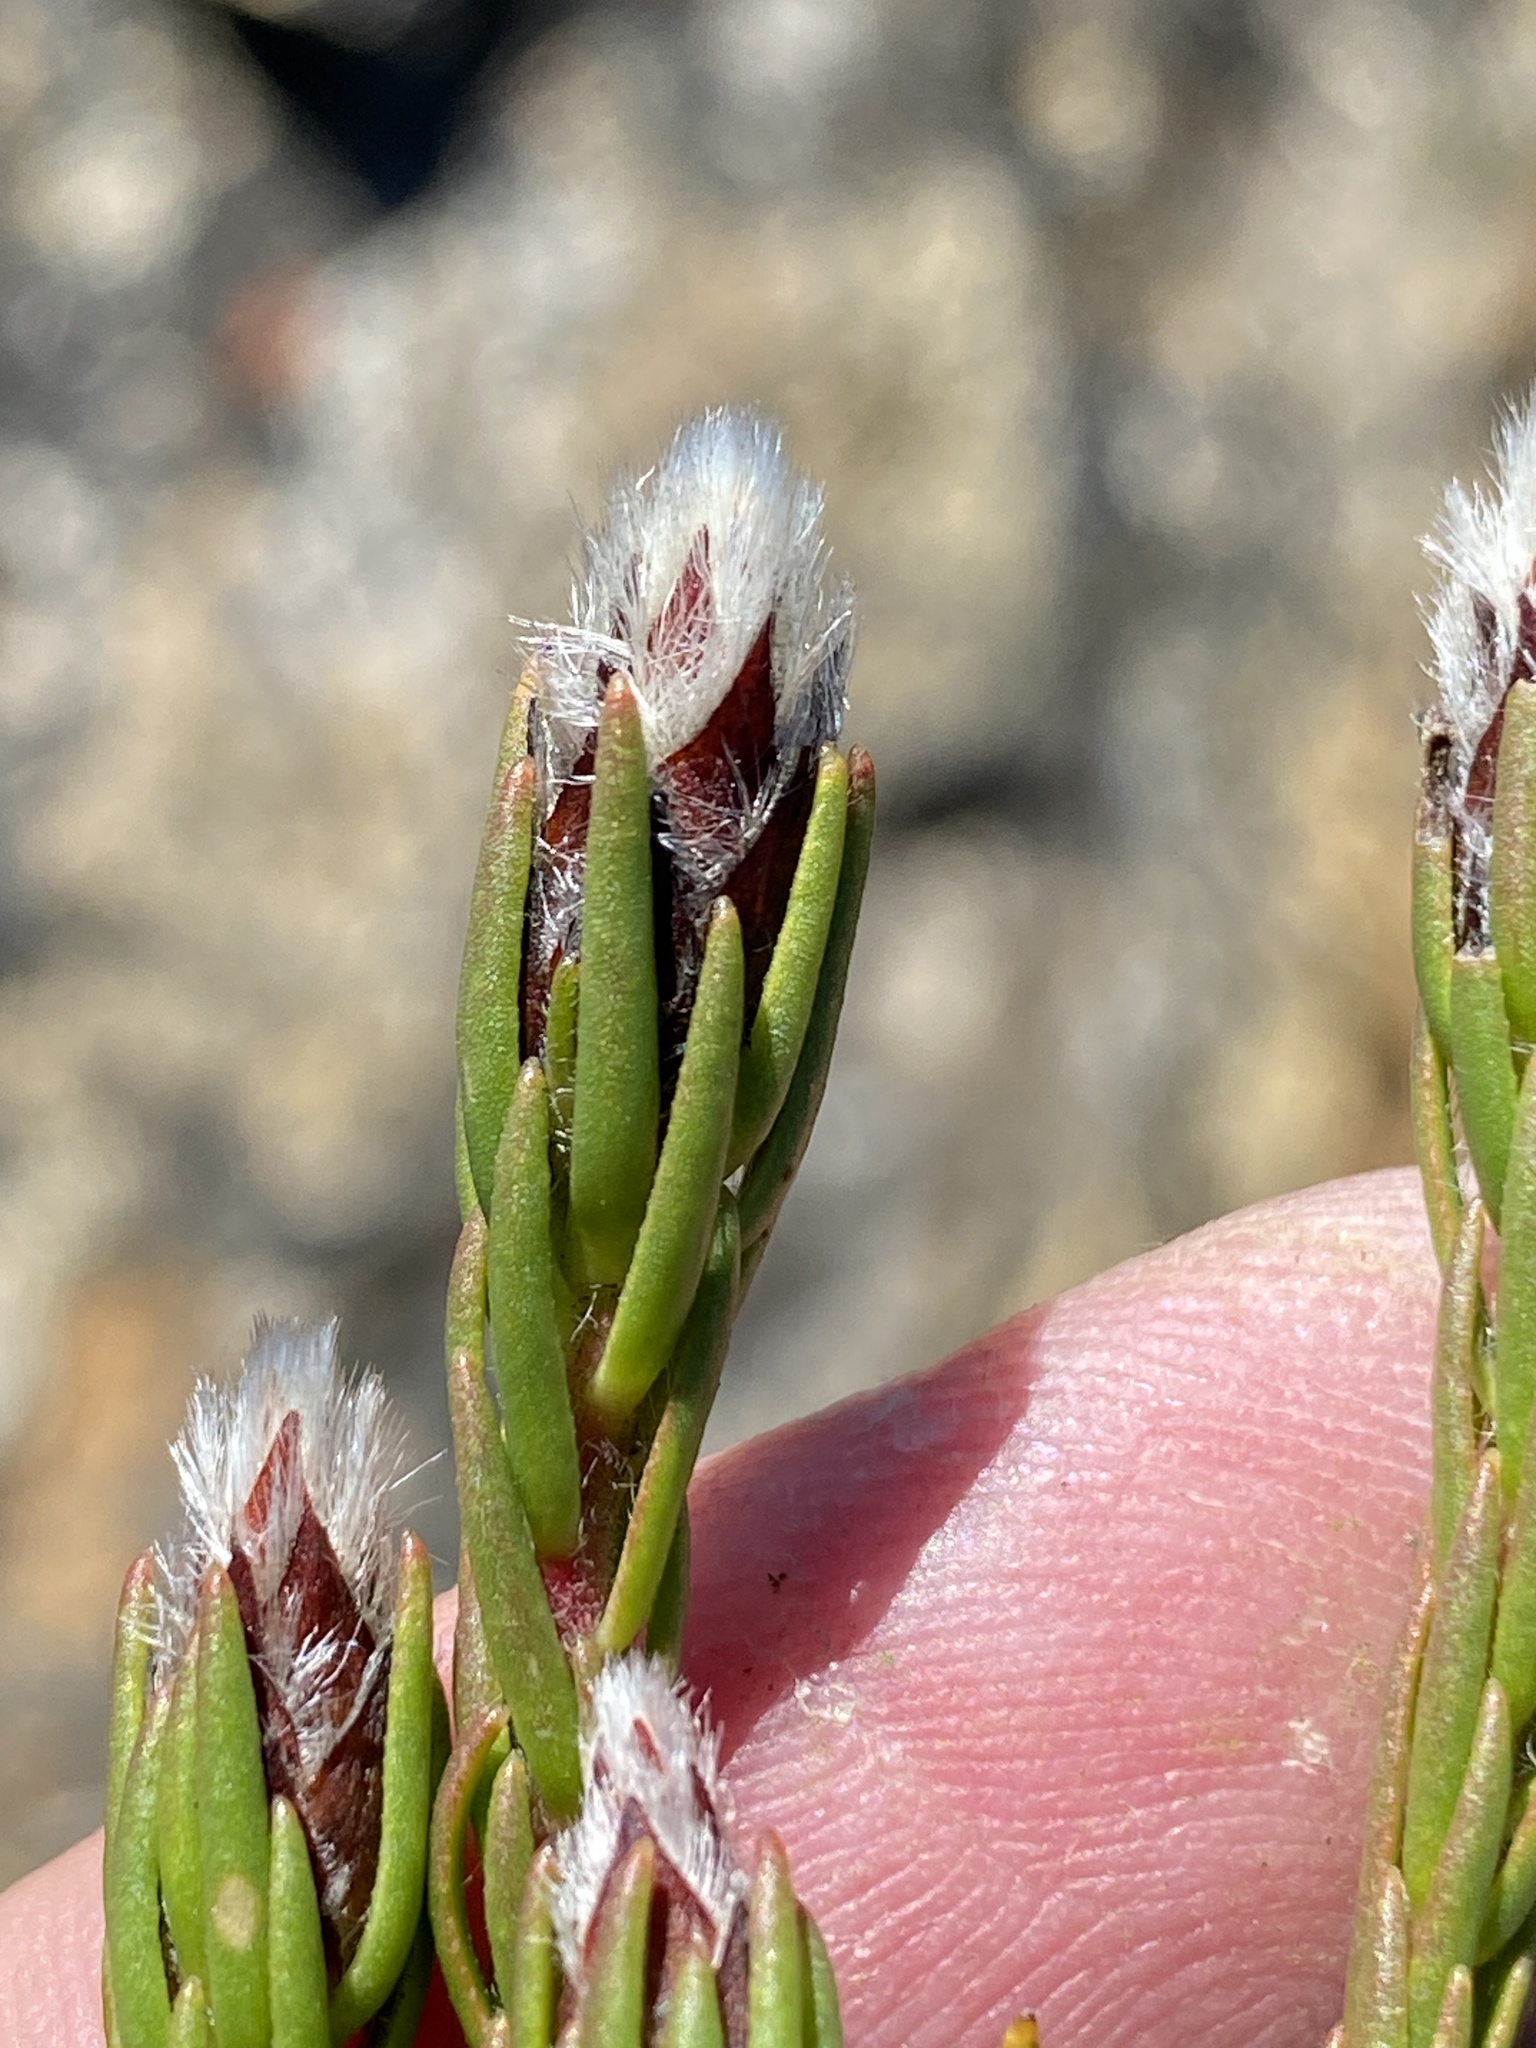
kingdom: Plantae
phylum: Tracheophyta
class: Magnoliopsida
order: Proteales
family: Proteaceae
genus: Leucadendron
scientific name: Leucadendron sorocephalodes
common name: Woolly conebush
